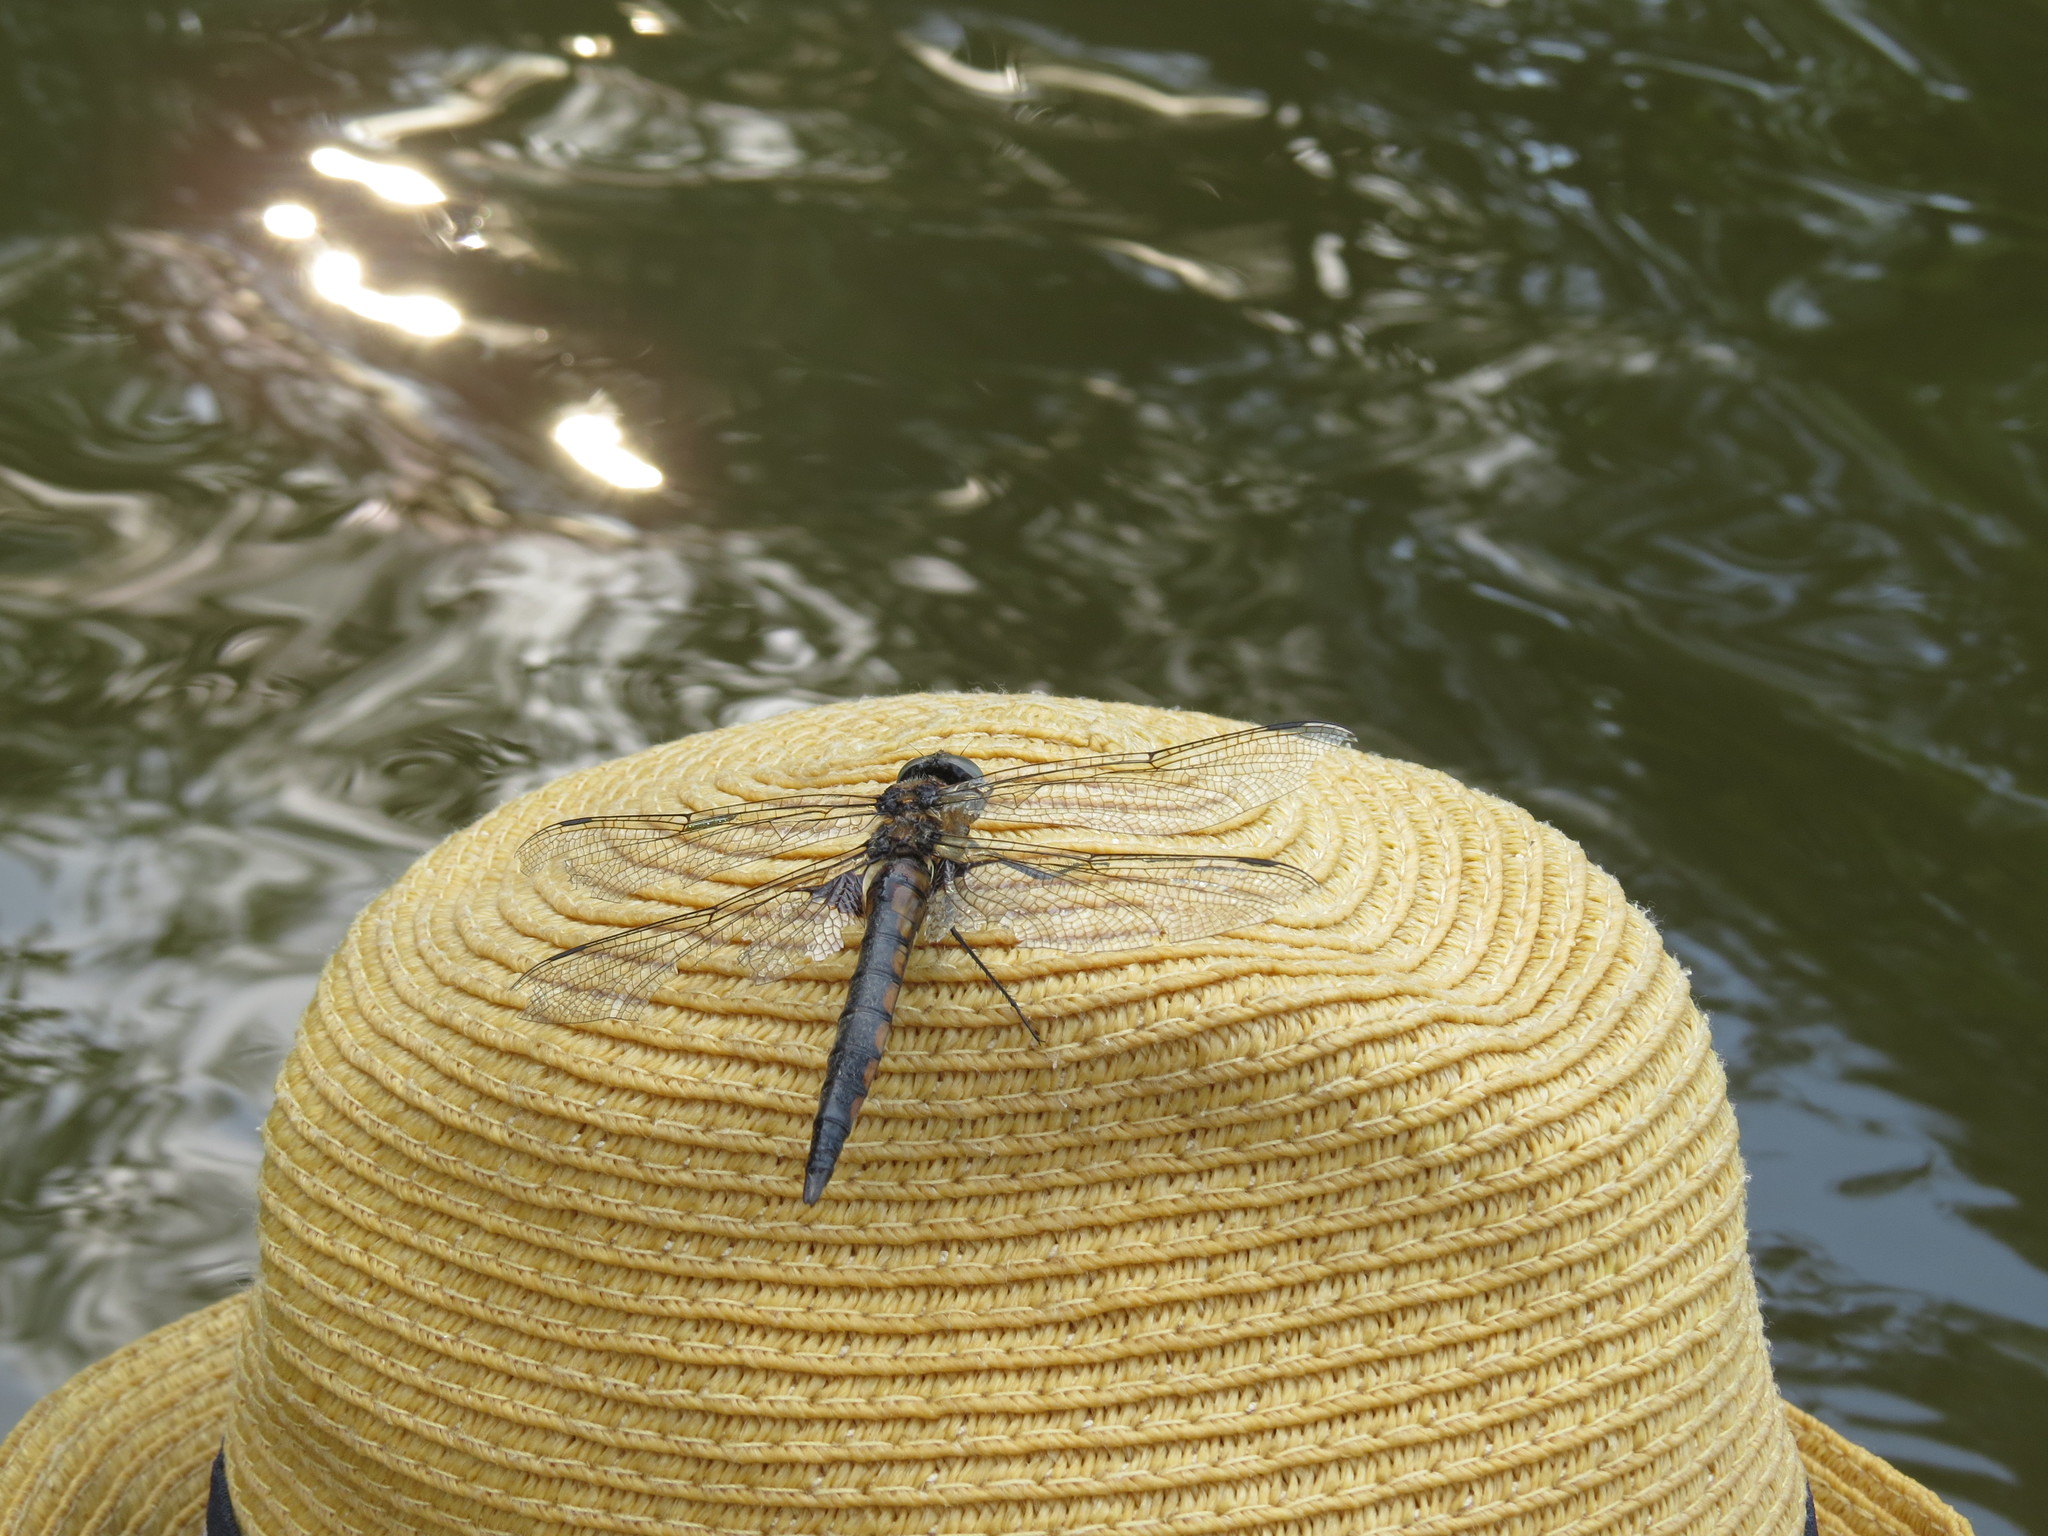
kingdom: Animalia
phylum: Arthropoda
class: Insecta
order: Odonata
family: Corduliidae
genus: Epitheca
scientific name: Epitheca bimaculata
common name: Eurasian baskettail
